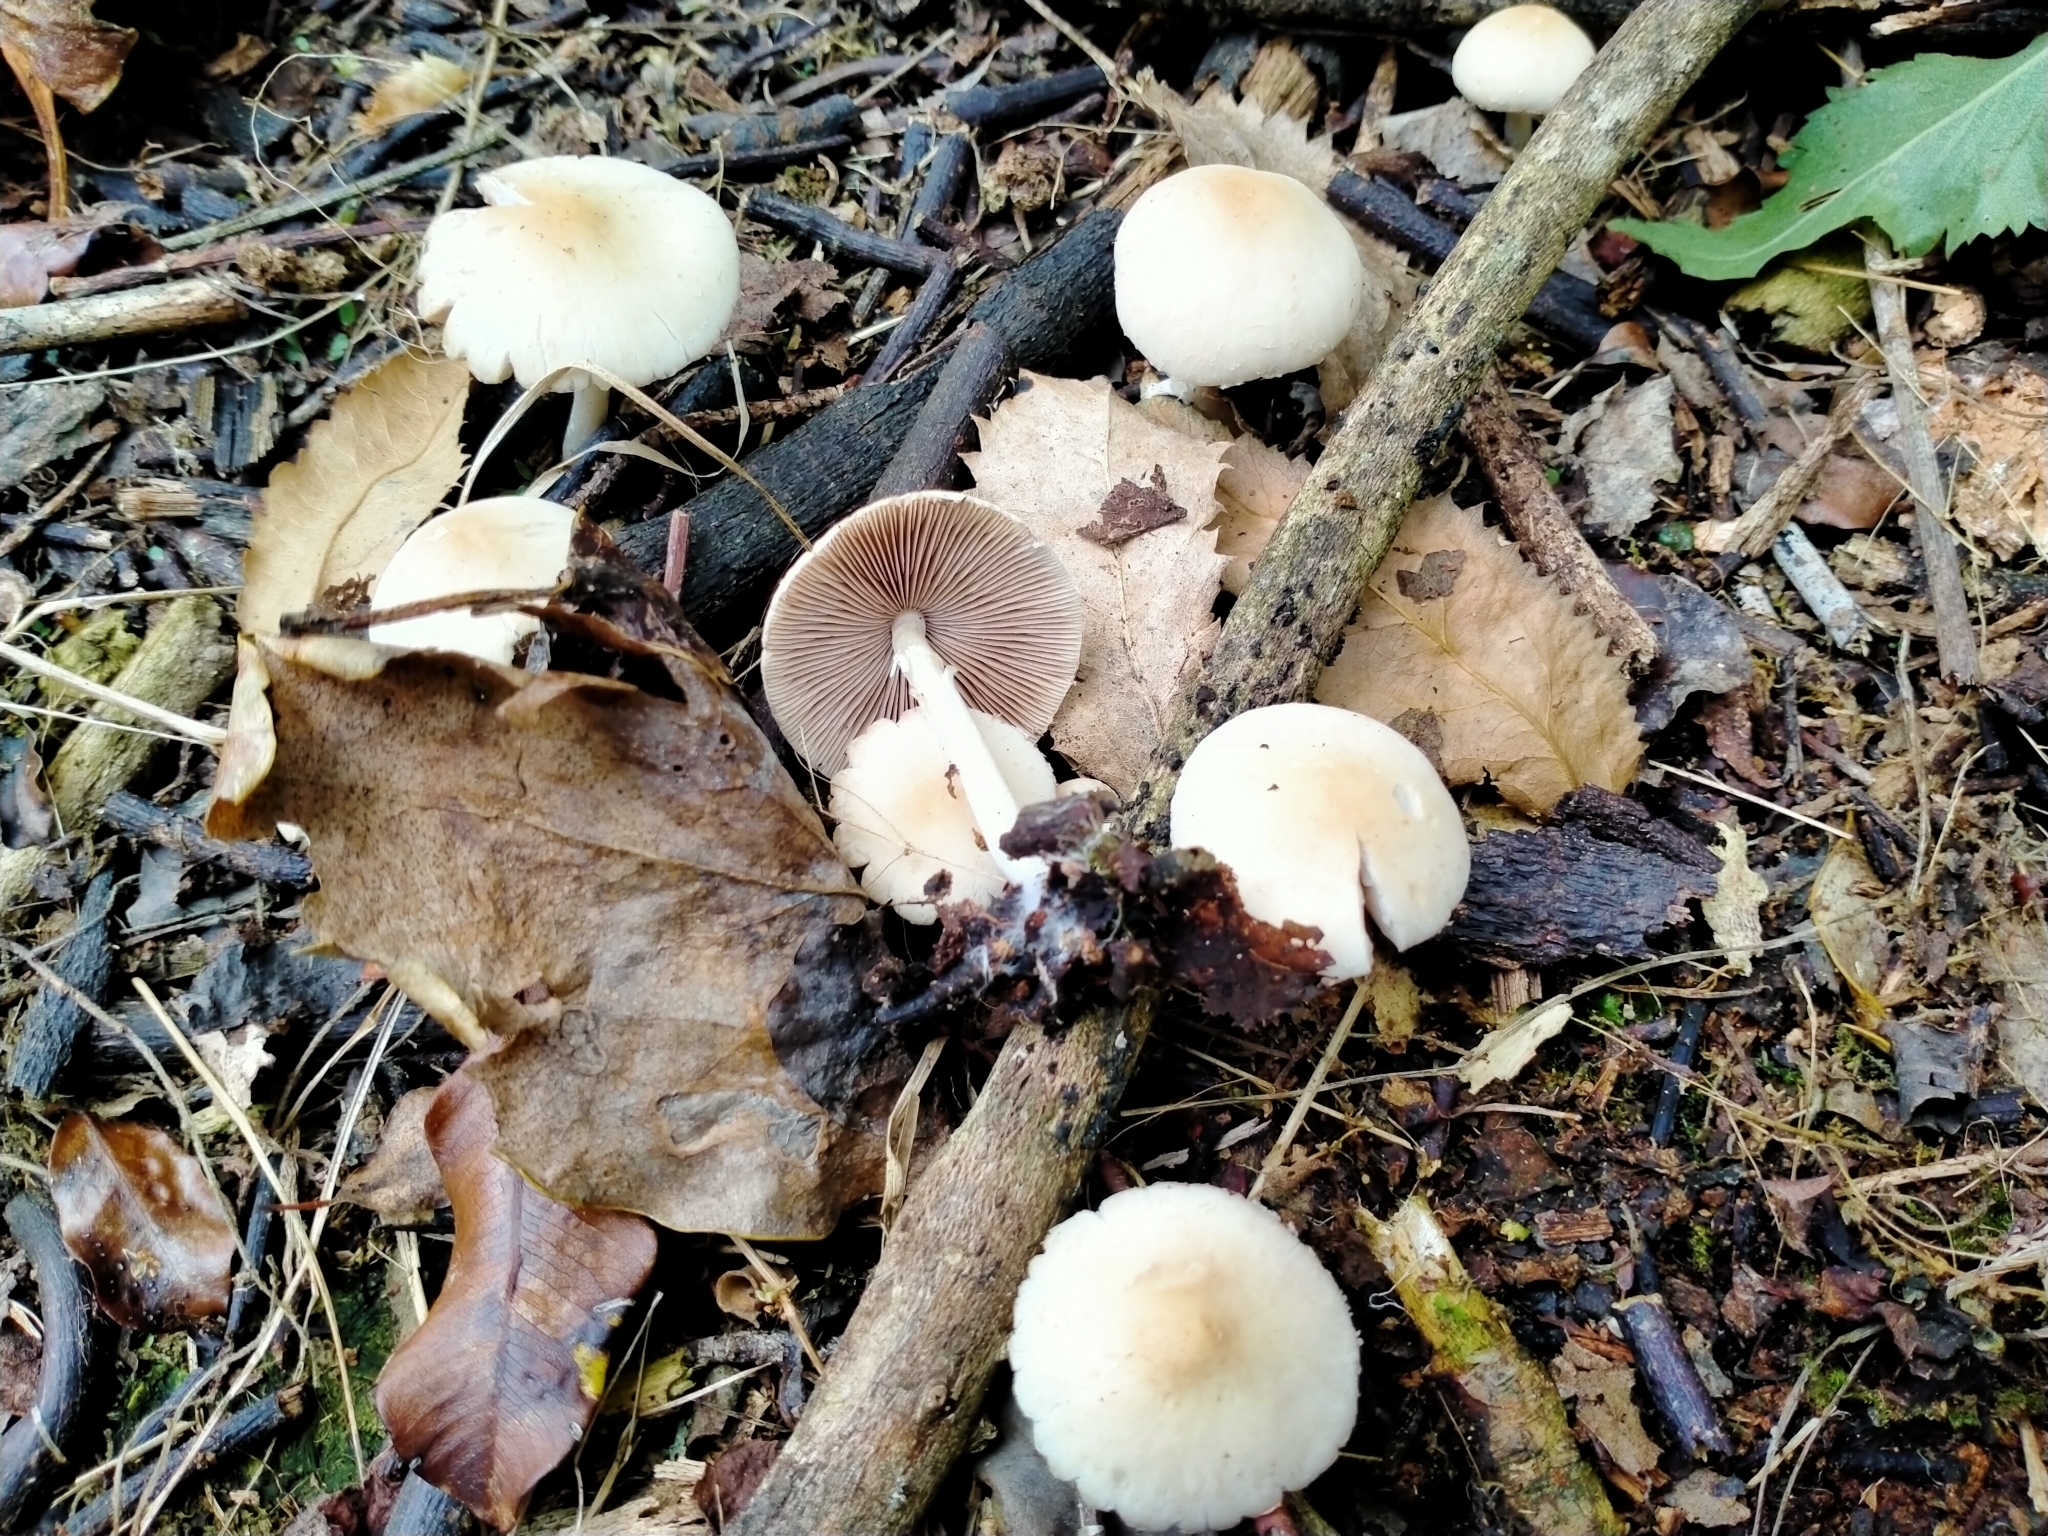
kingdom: Fungi
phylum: Basidiomycota
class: Agaricomycetes
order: Agaricales
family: Psathyrellaceae
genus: Candolleomyces
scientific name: Candolleomyces candolleanus
